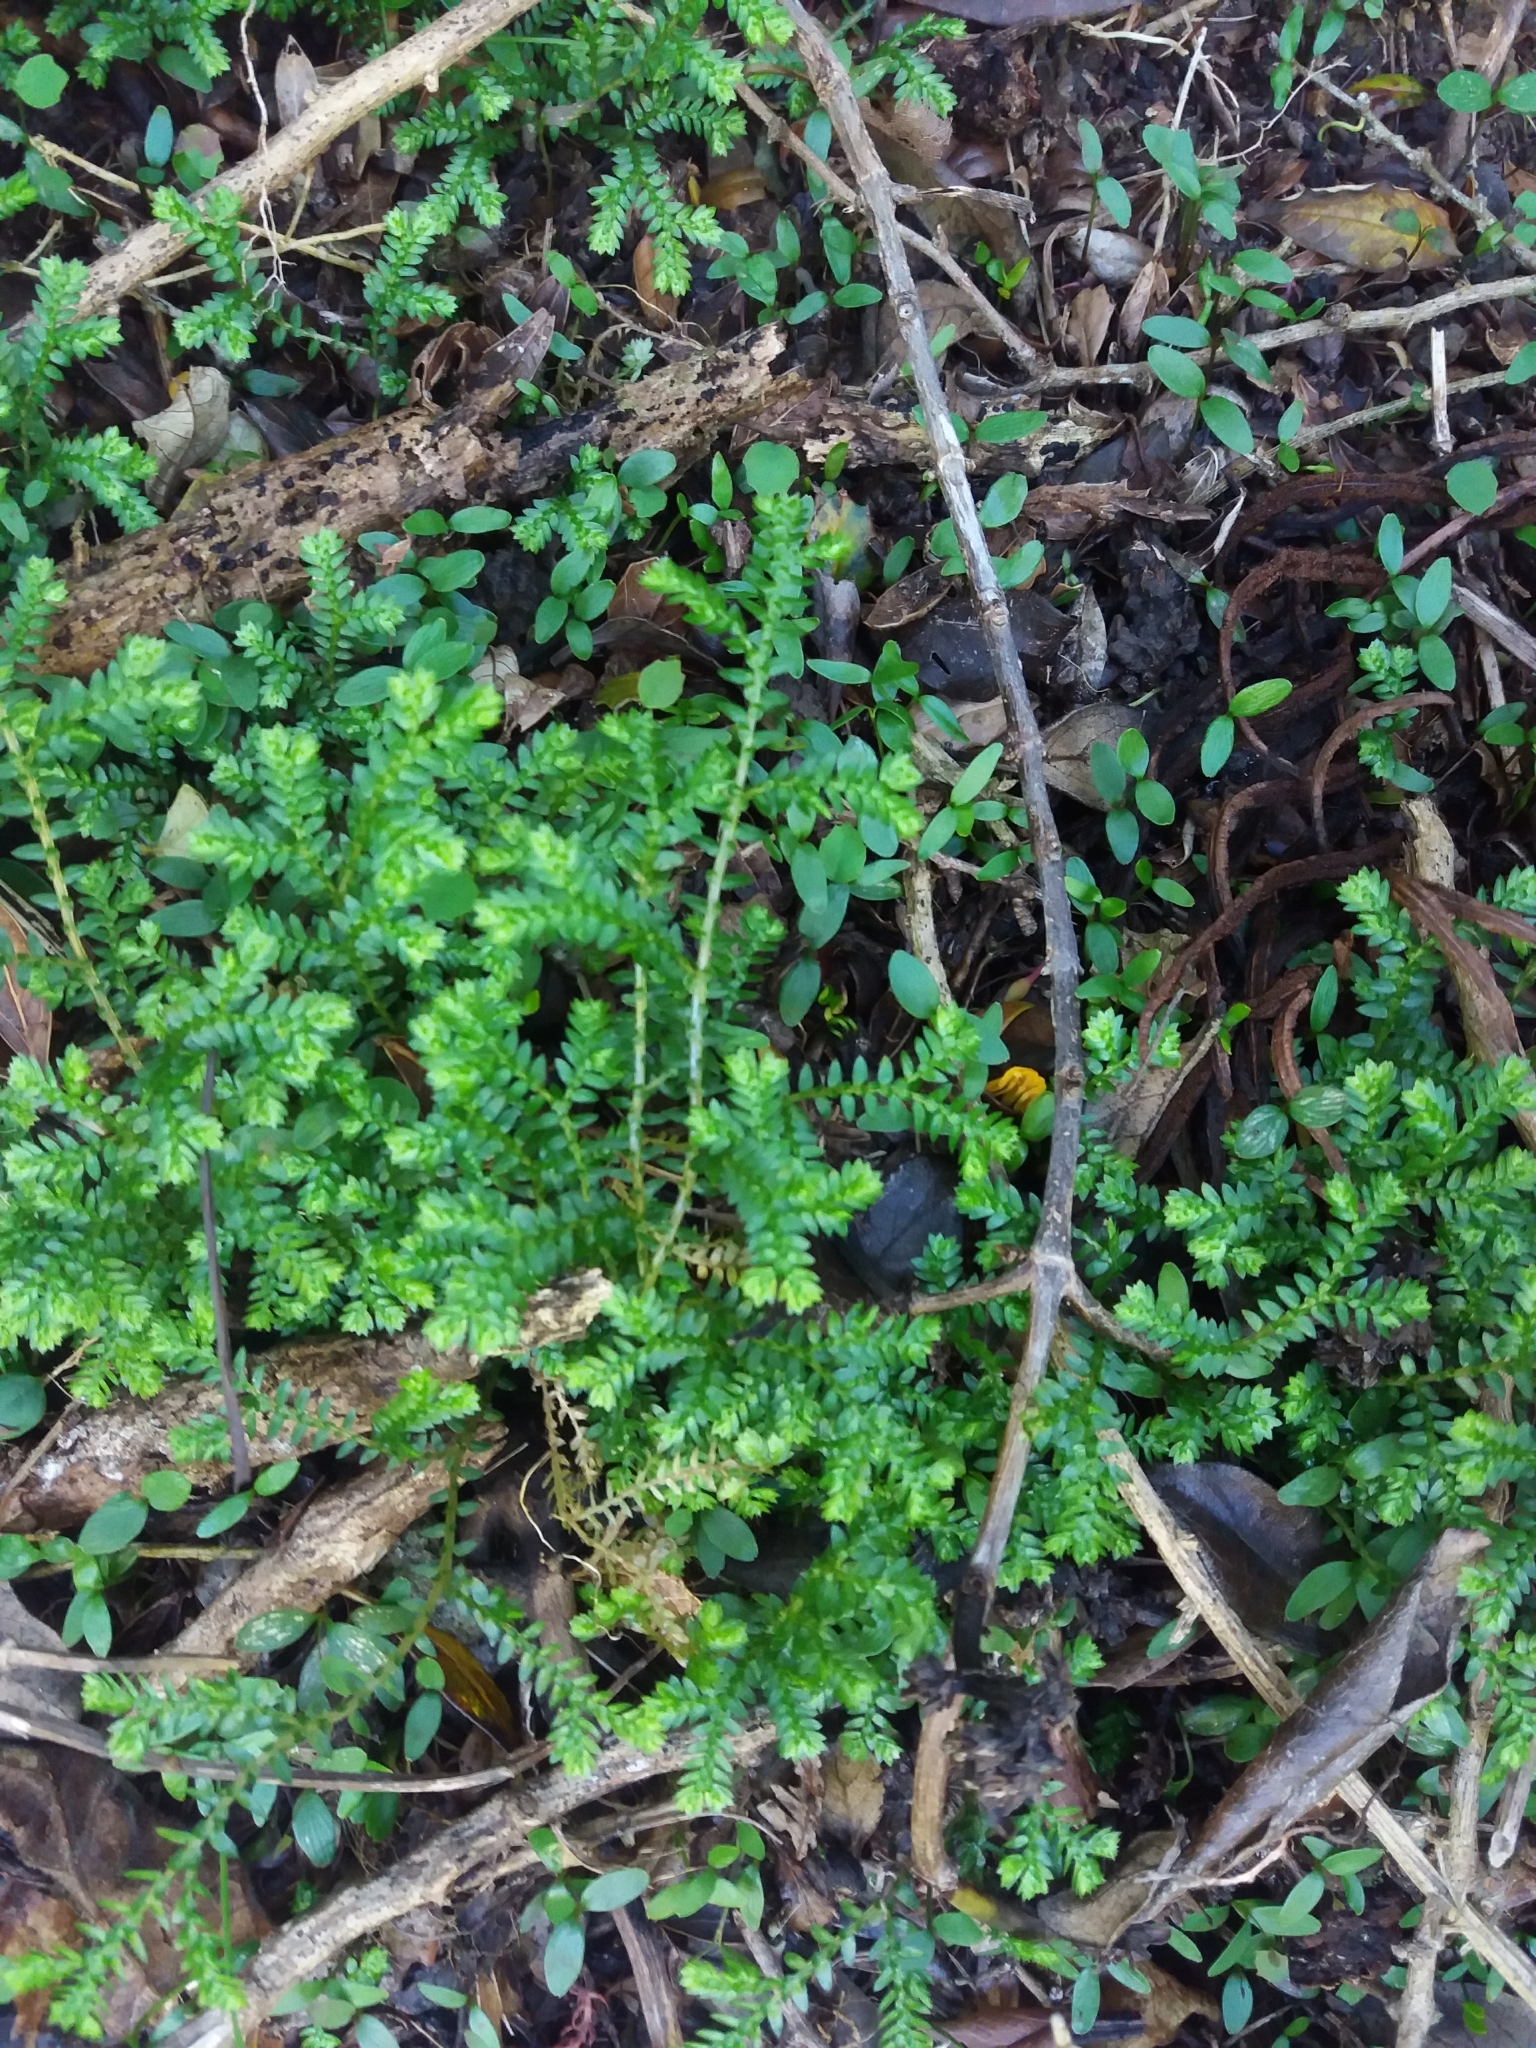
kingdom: Plantae
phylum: Tracheophyta
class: Lycopodiopsida
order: Selaginellales
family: Selaginellaceae
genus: Selaginella
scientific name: Selaginella kraussiana
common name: Krauss' spikemoss
